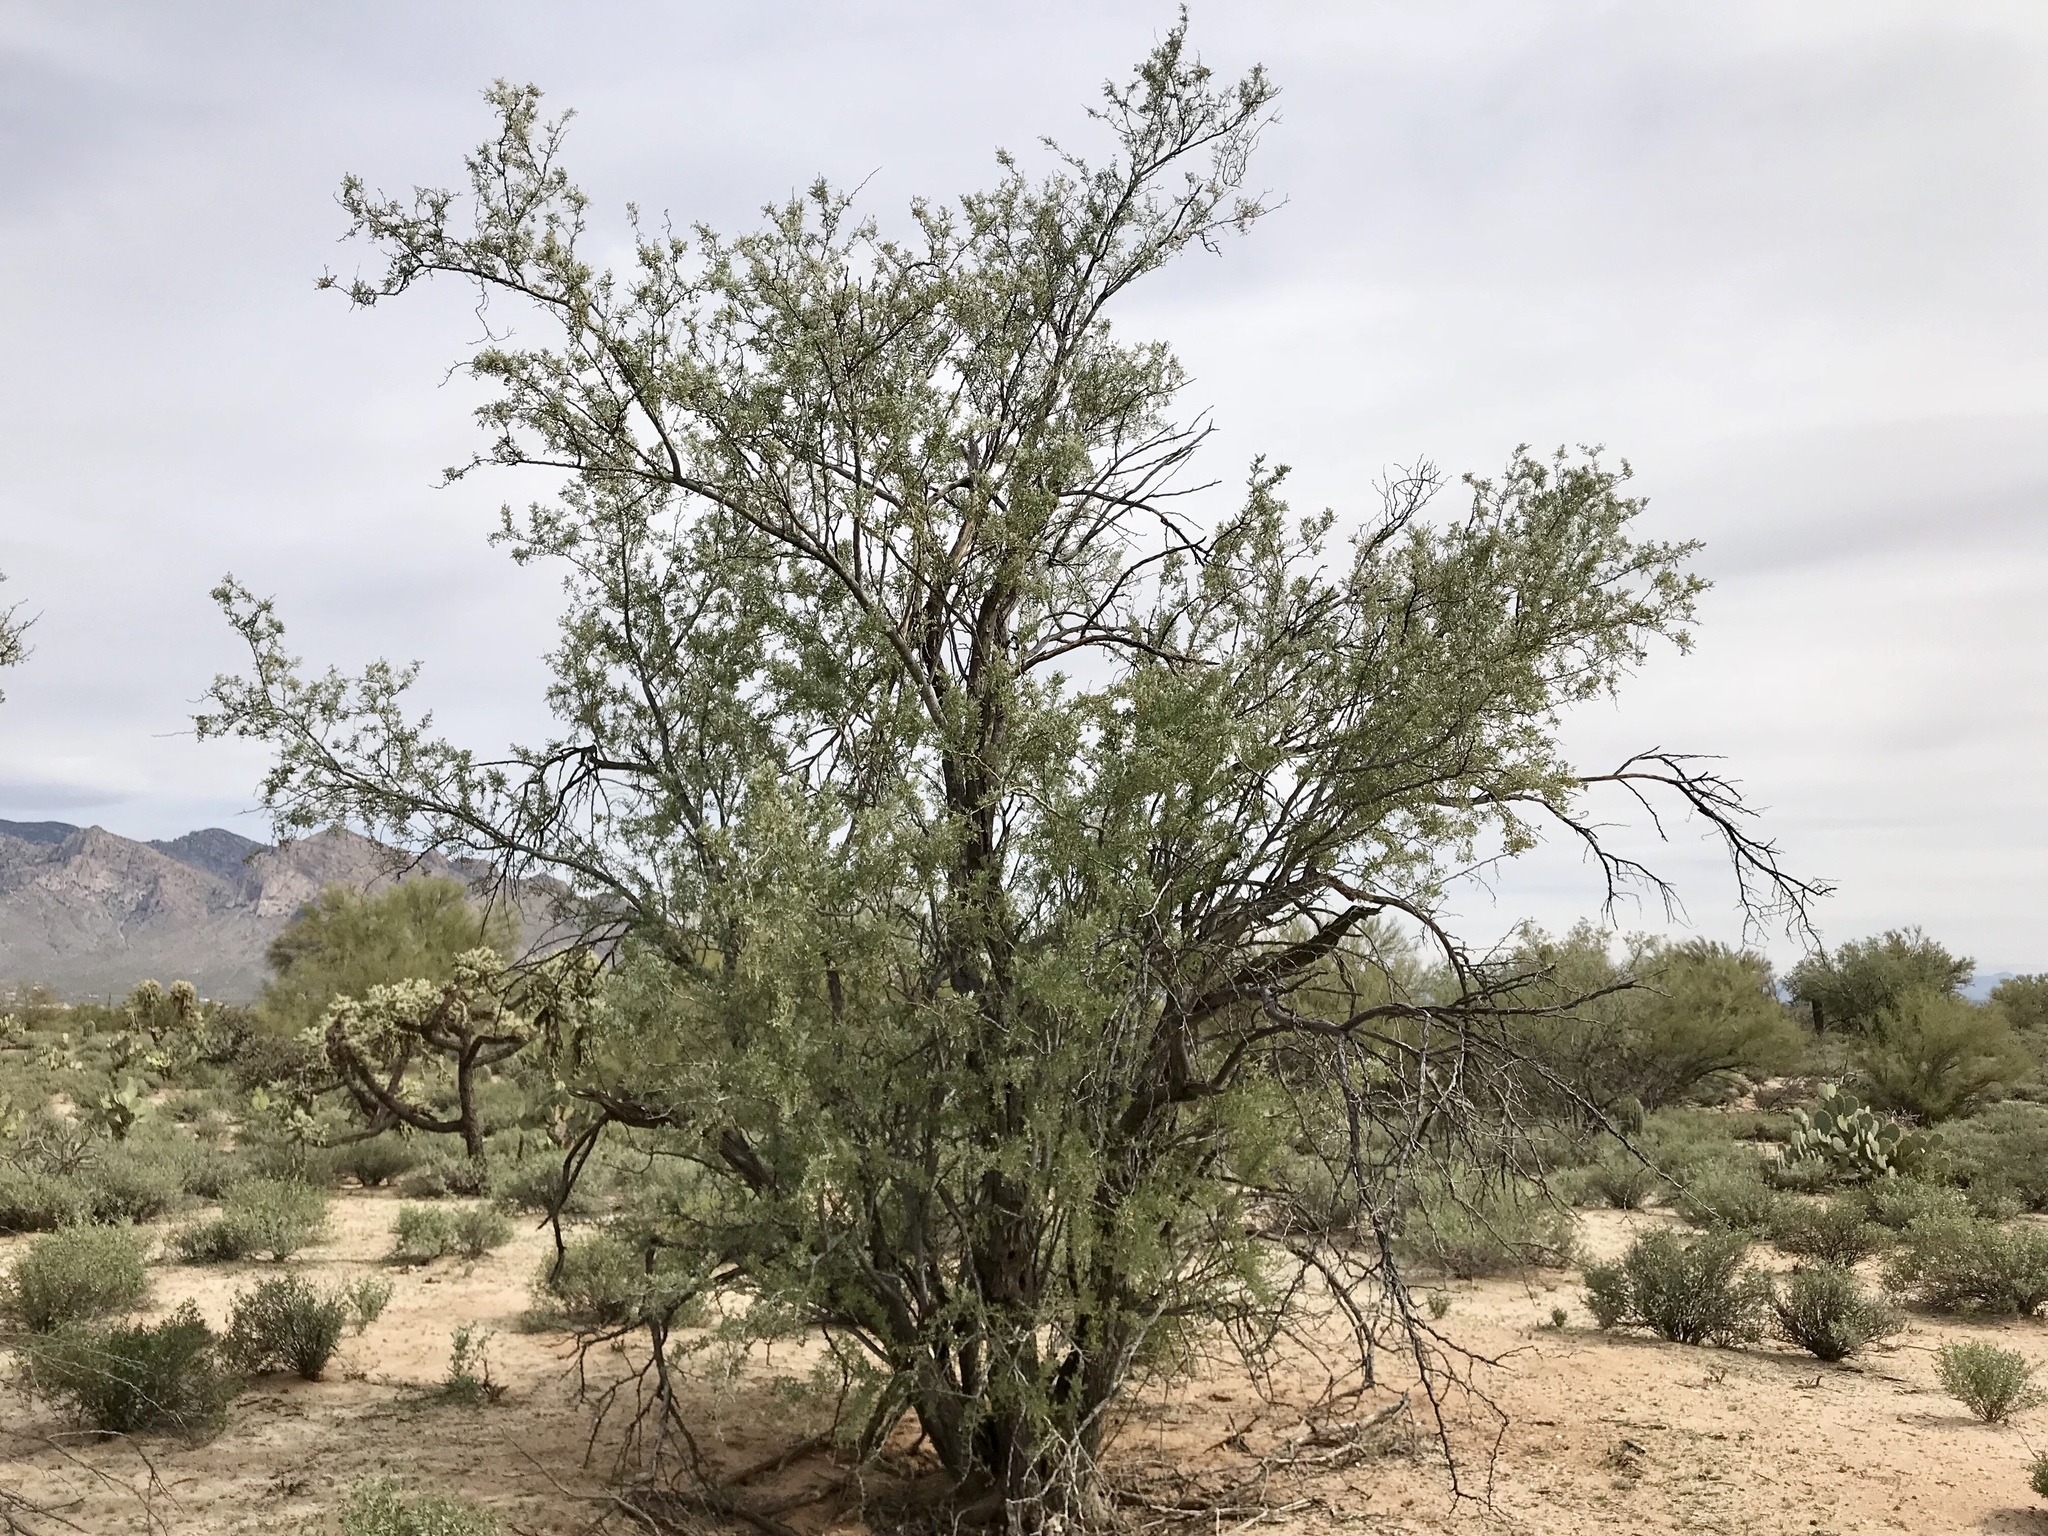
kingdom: Plantae
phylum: Tracheophyta
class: Magnoliopsida
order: Fabales
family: Fabaceae
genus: Olneya
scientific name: Olneya tesota
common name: Desert ironwood
